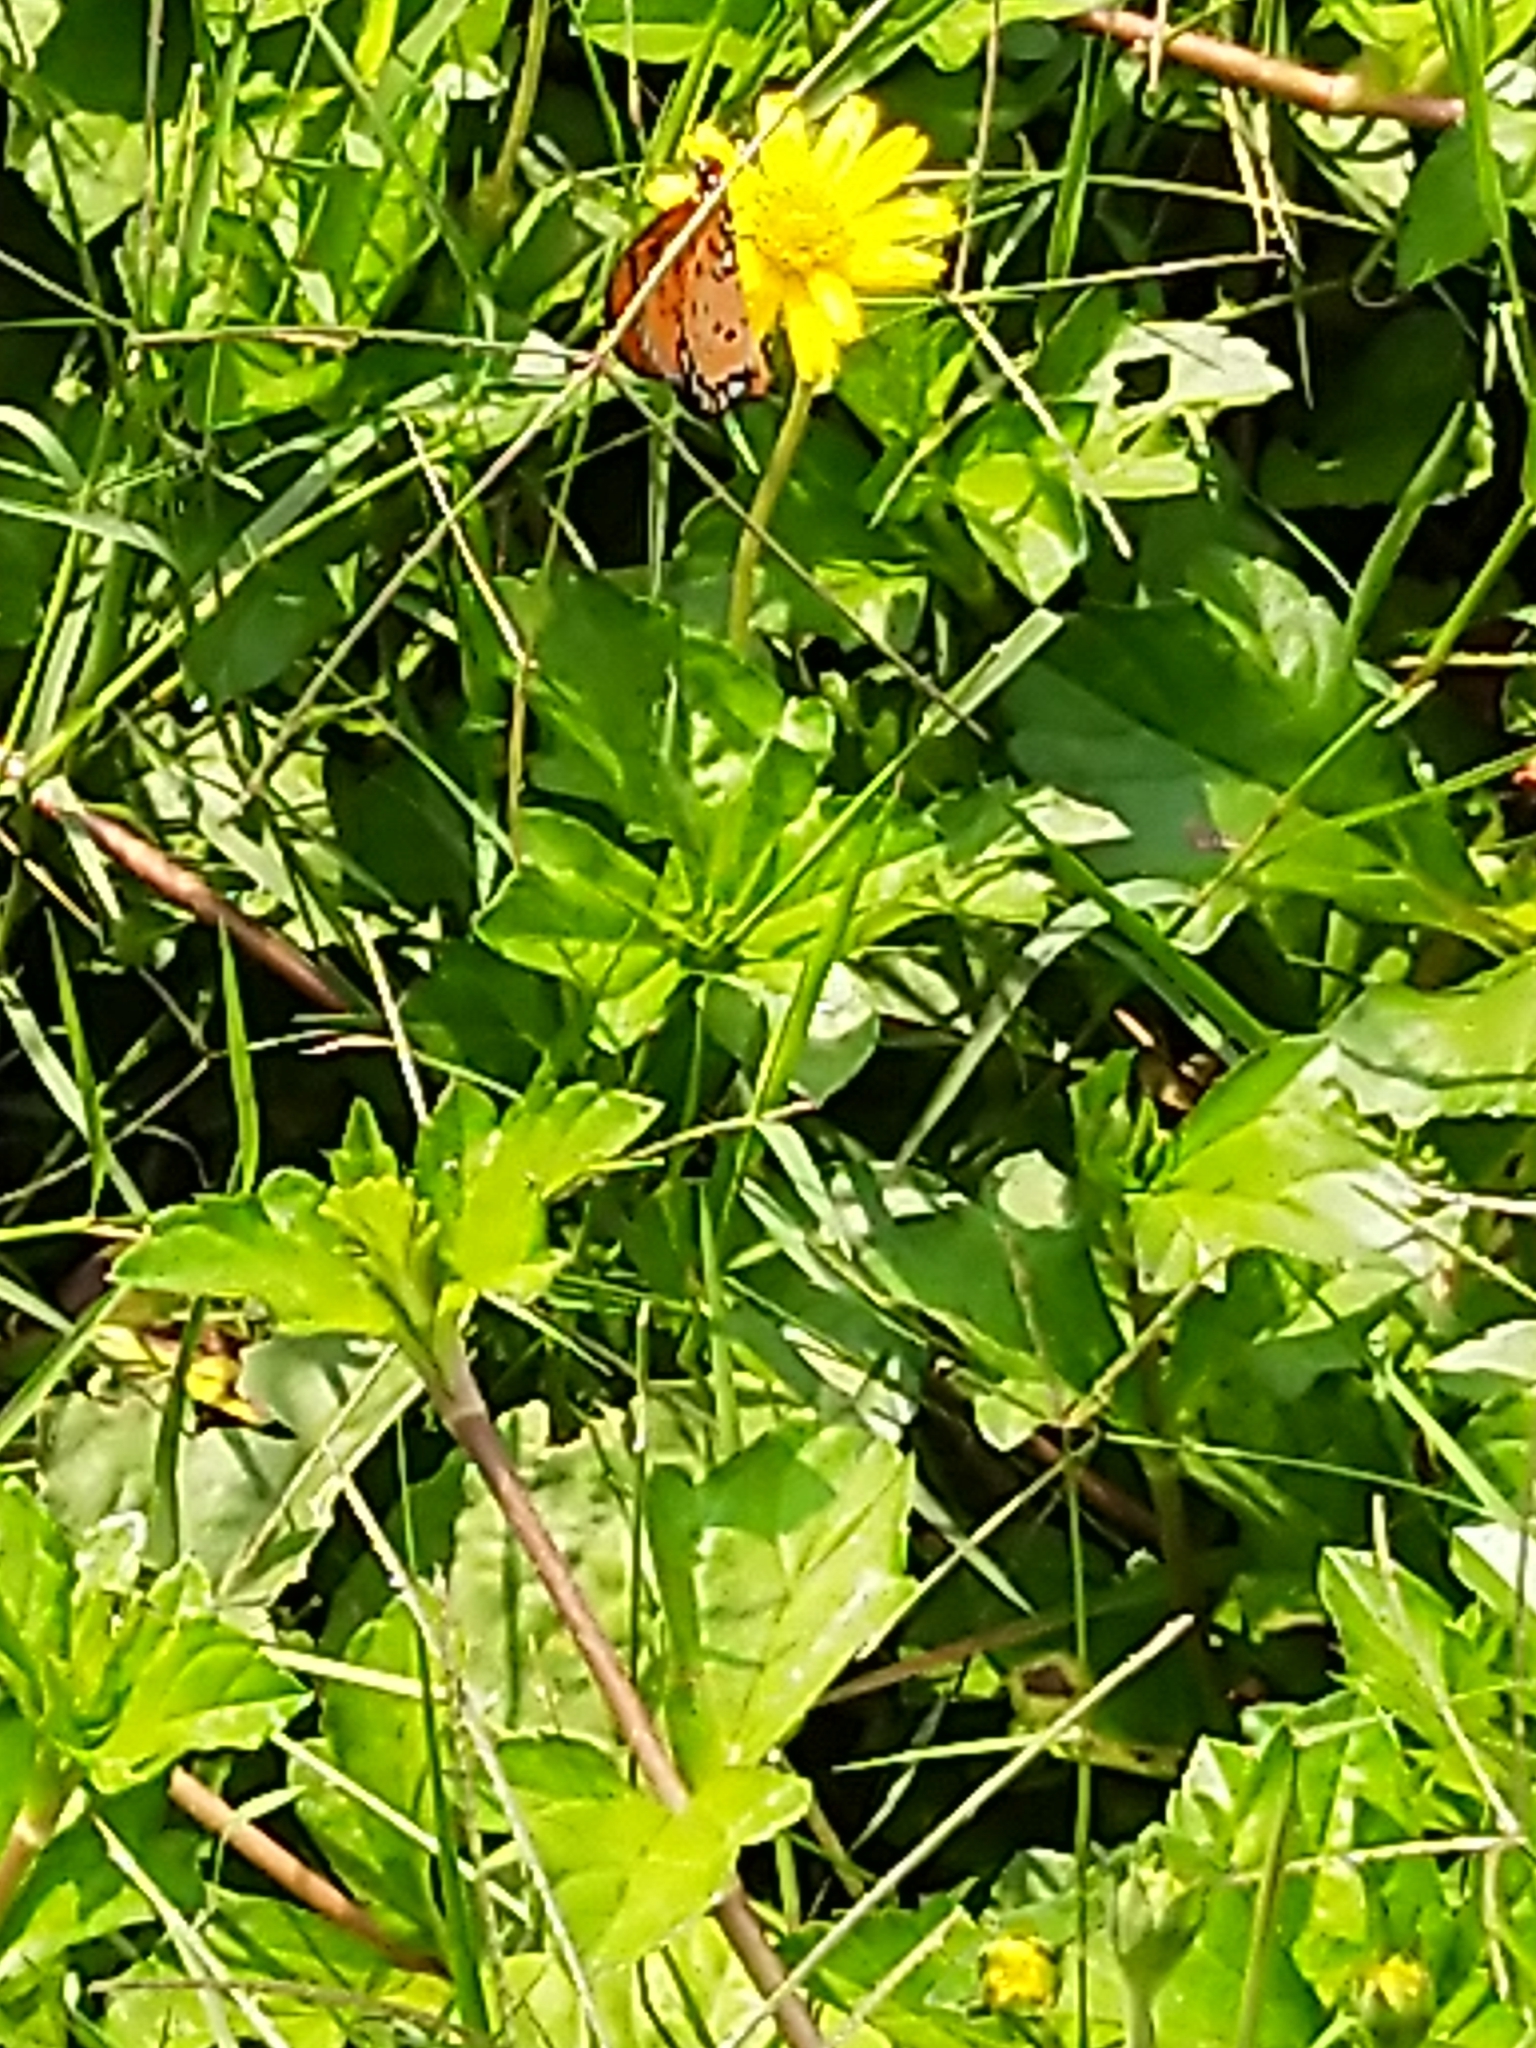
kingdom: Animalia
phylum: Arthropoda
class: Insecta
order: Lepidoptera
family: Nymphalidae
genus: Acraea
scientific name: Acraea terpsicore
